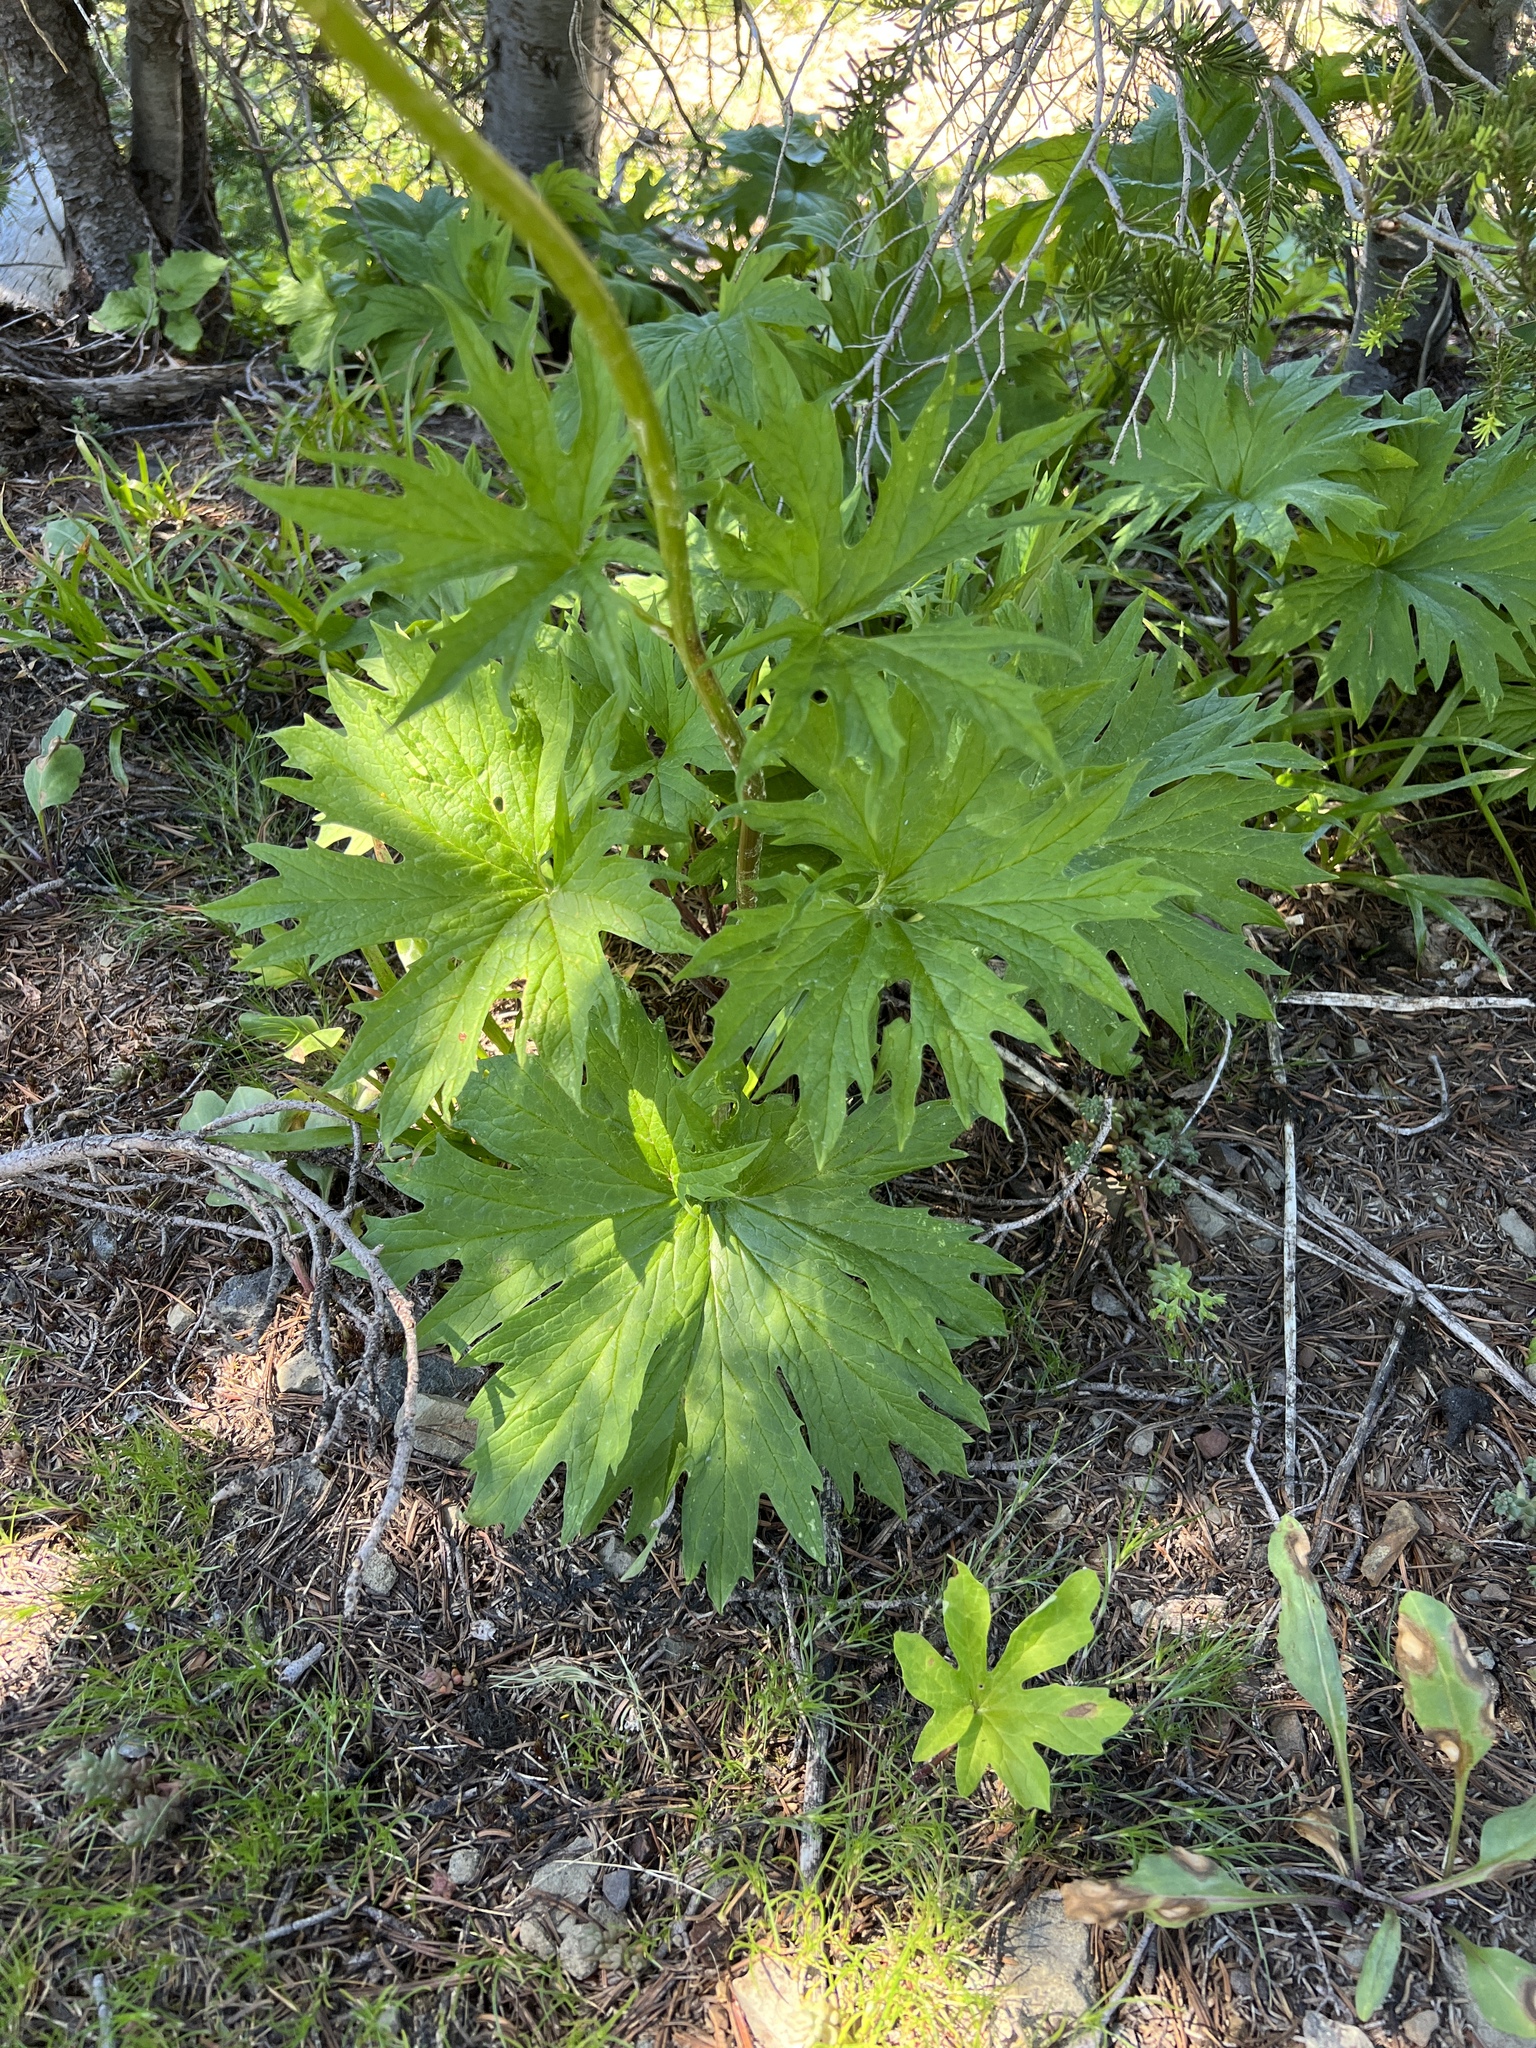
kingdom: Plantae
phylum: Tracheophyta
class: Magnoliopsida
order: Asterales
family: Asteraceae
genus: Cacaliopsis
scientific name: Cacaliopsis nardosmia
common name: Silvercrown
